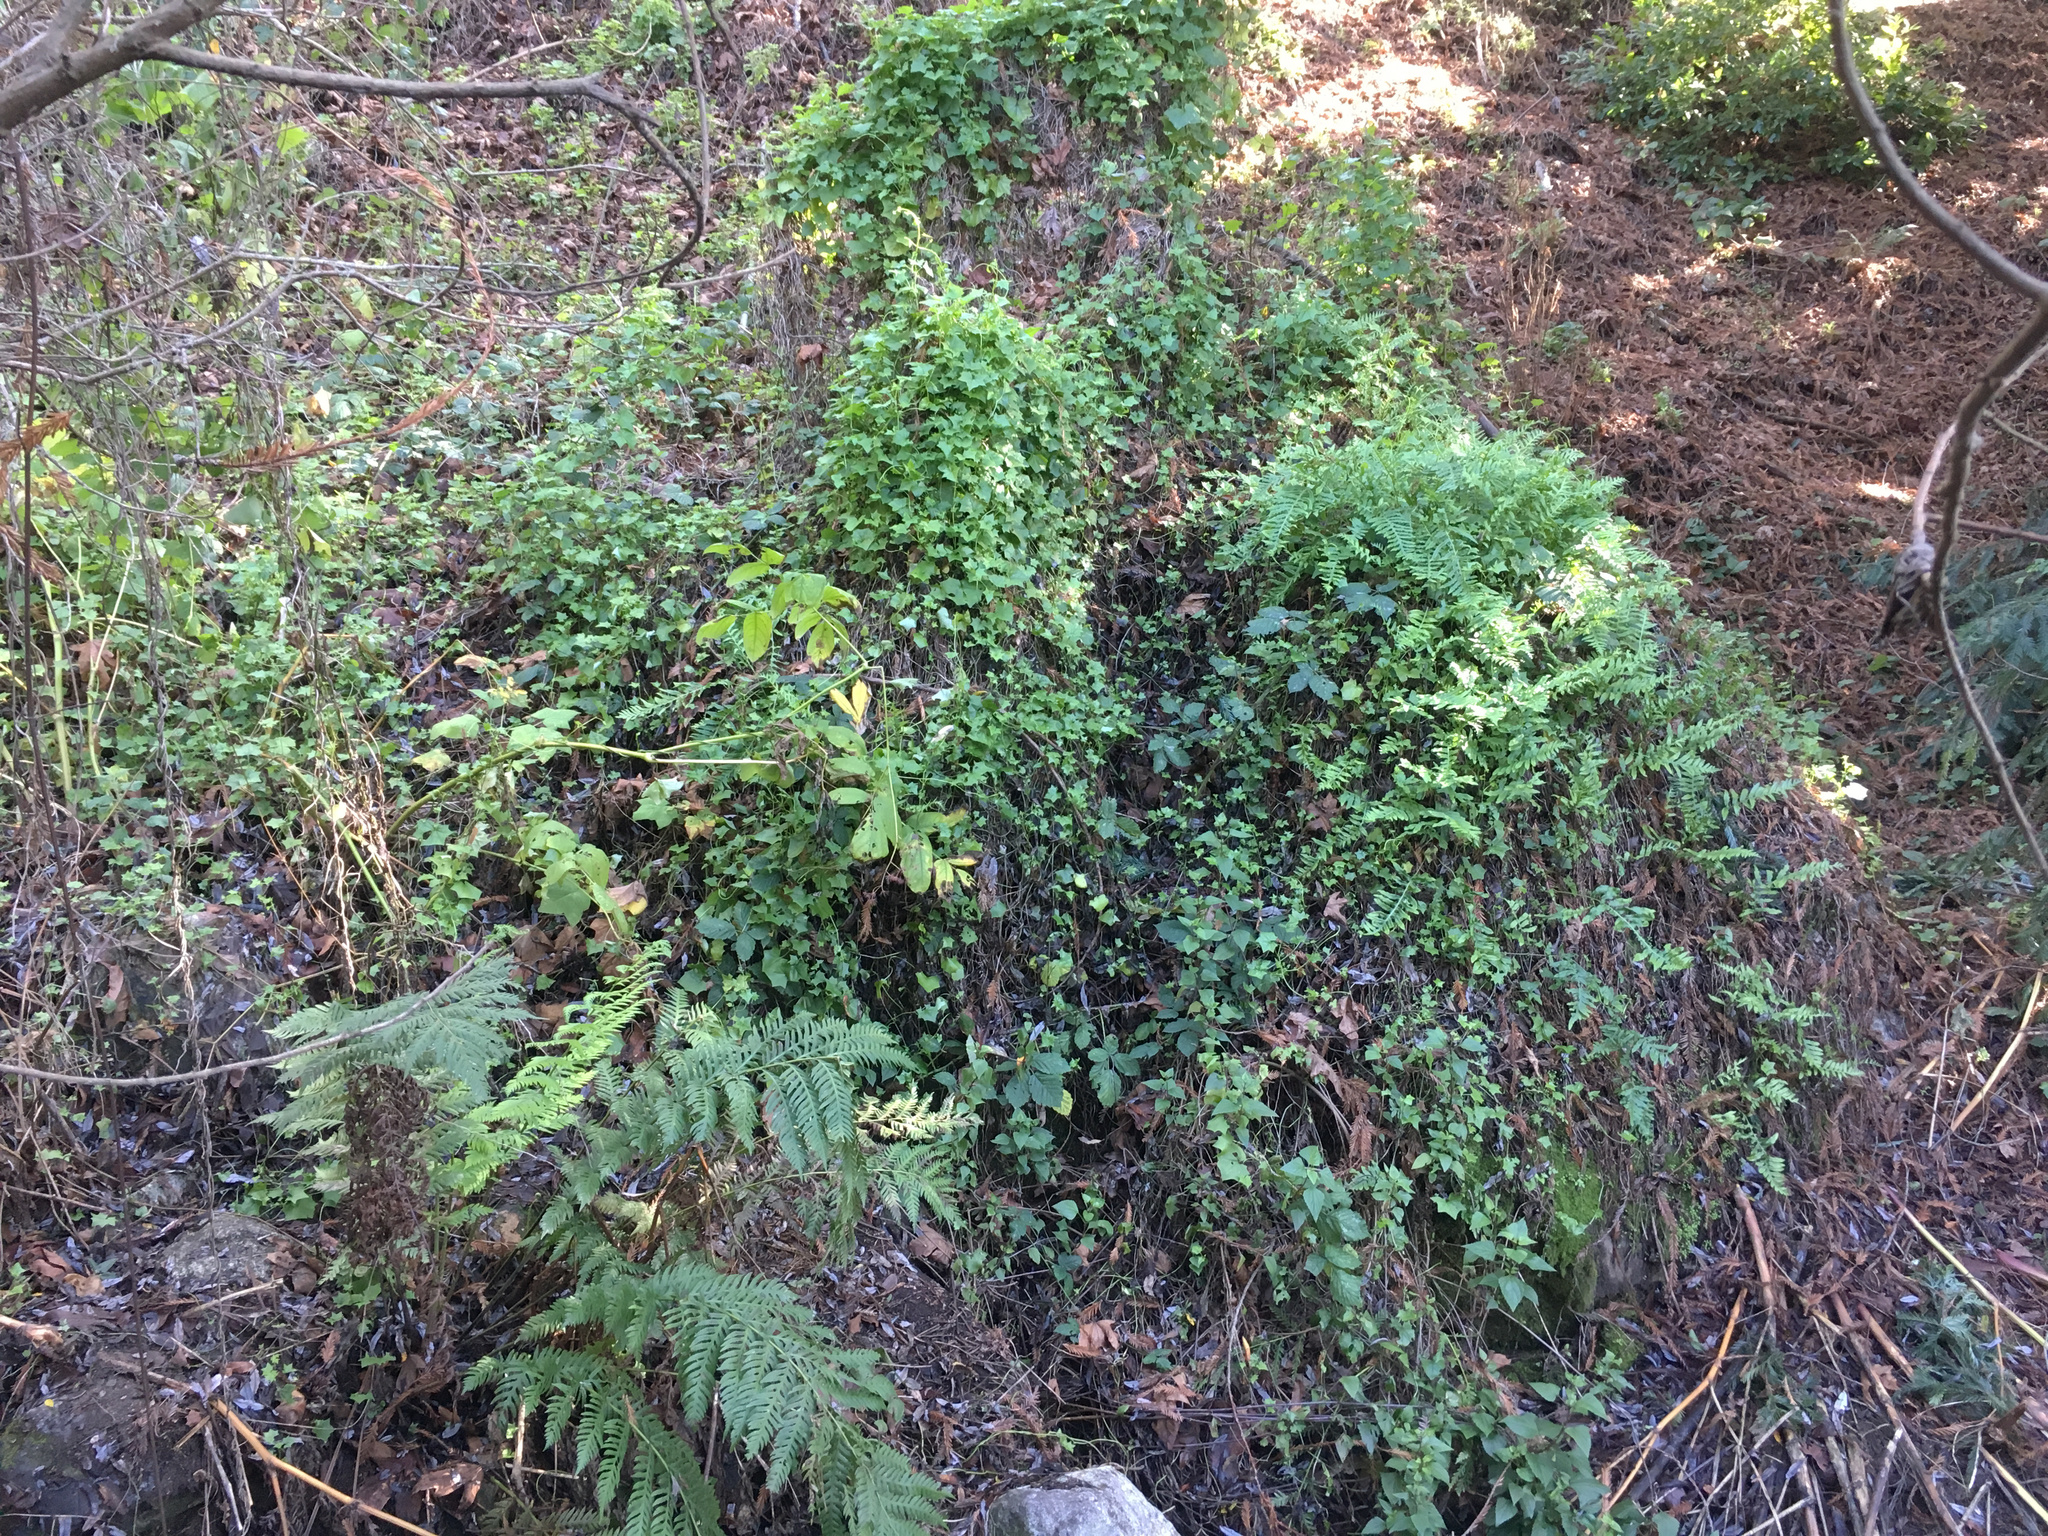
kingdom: Plantae
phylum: Tracheophyta
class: Magnoliopsida
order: Asterales
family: Asteraceae
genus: Delairea
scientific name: Delairea odorata
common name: Cape-ivy
